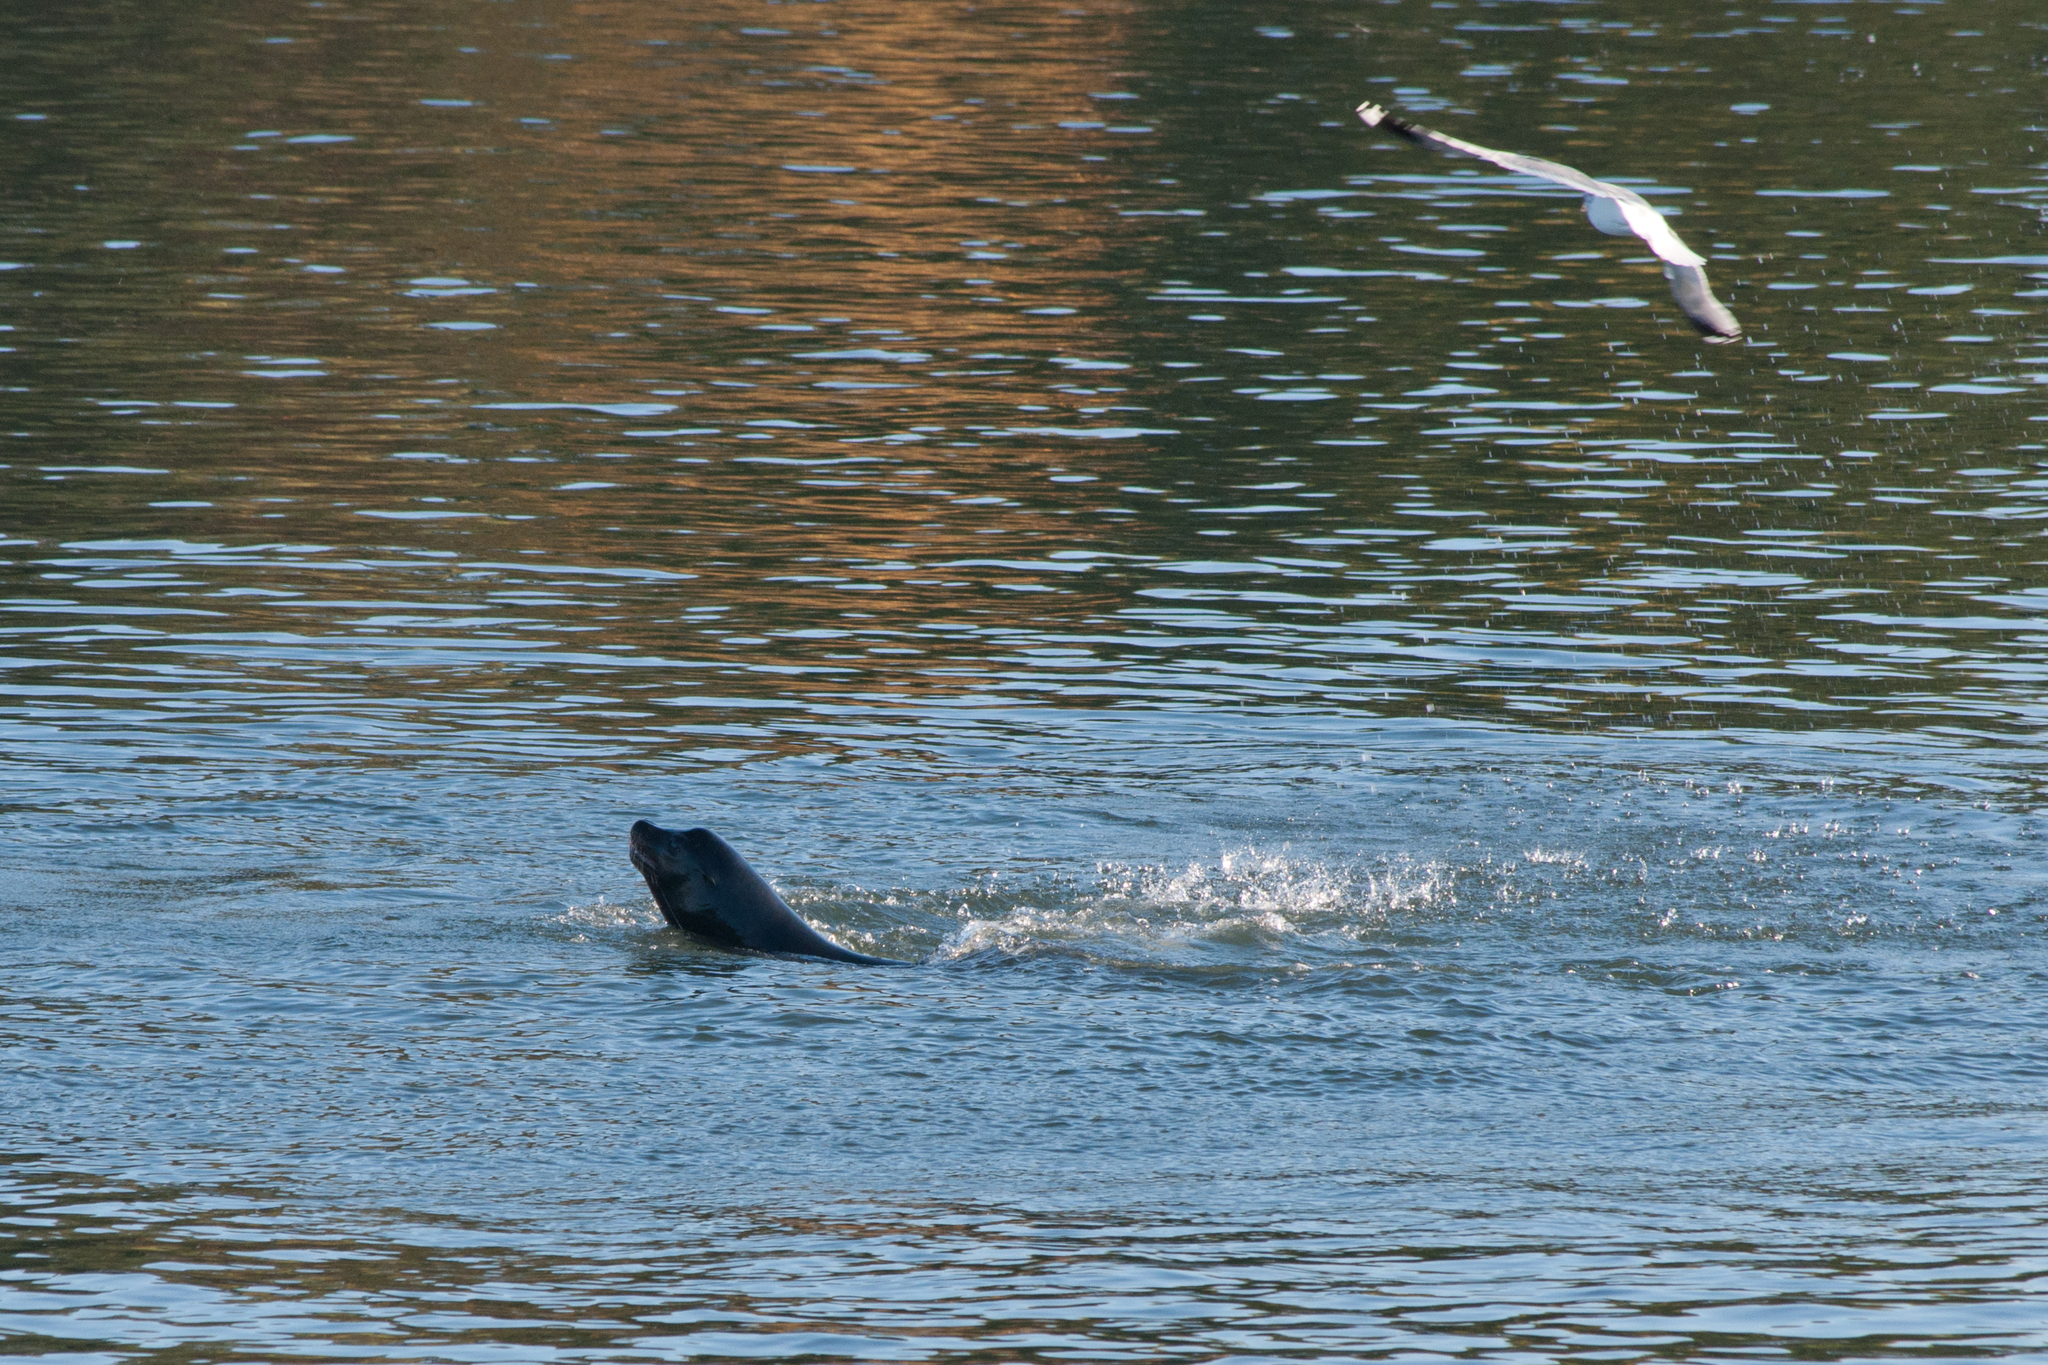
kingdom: Animalia
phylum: Chordata
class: Mammalia
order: Carnivora
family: Otariidae
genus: Zalophus
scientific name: Zalophus californianus
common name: California sea lion
